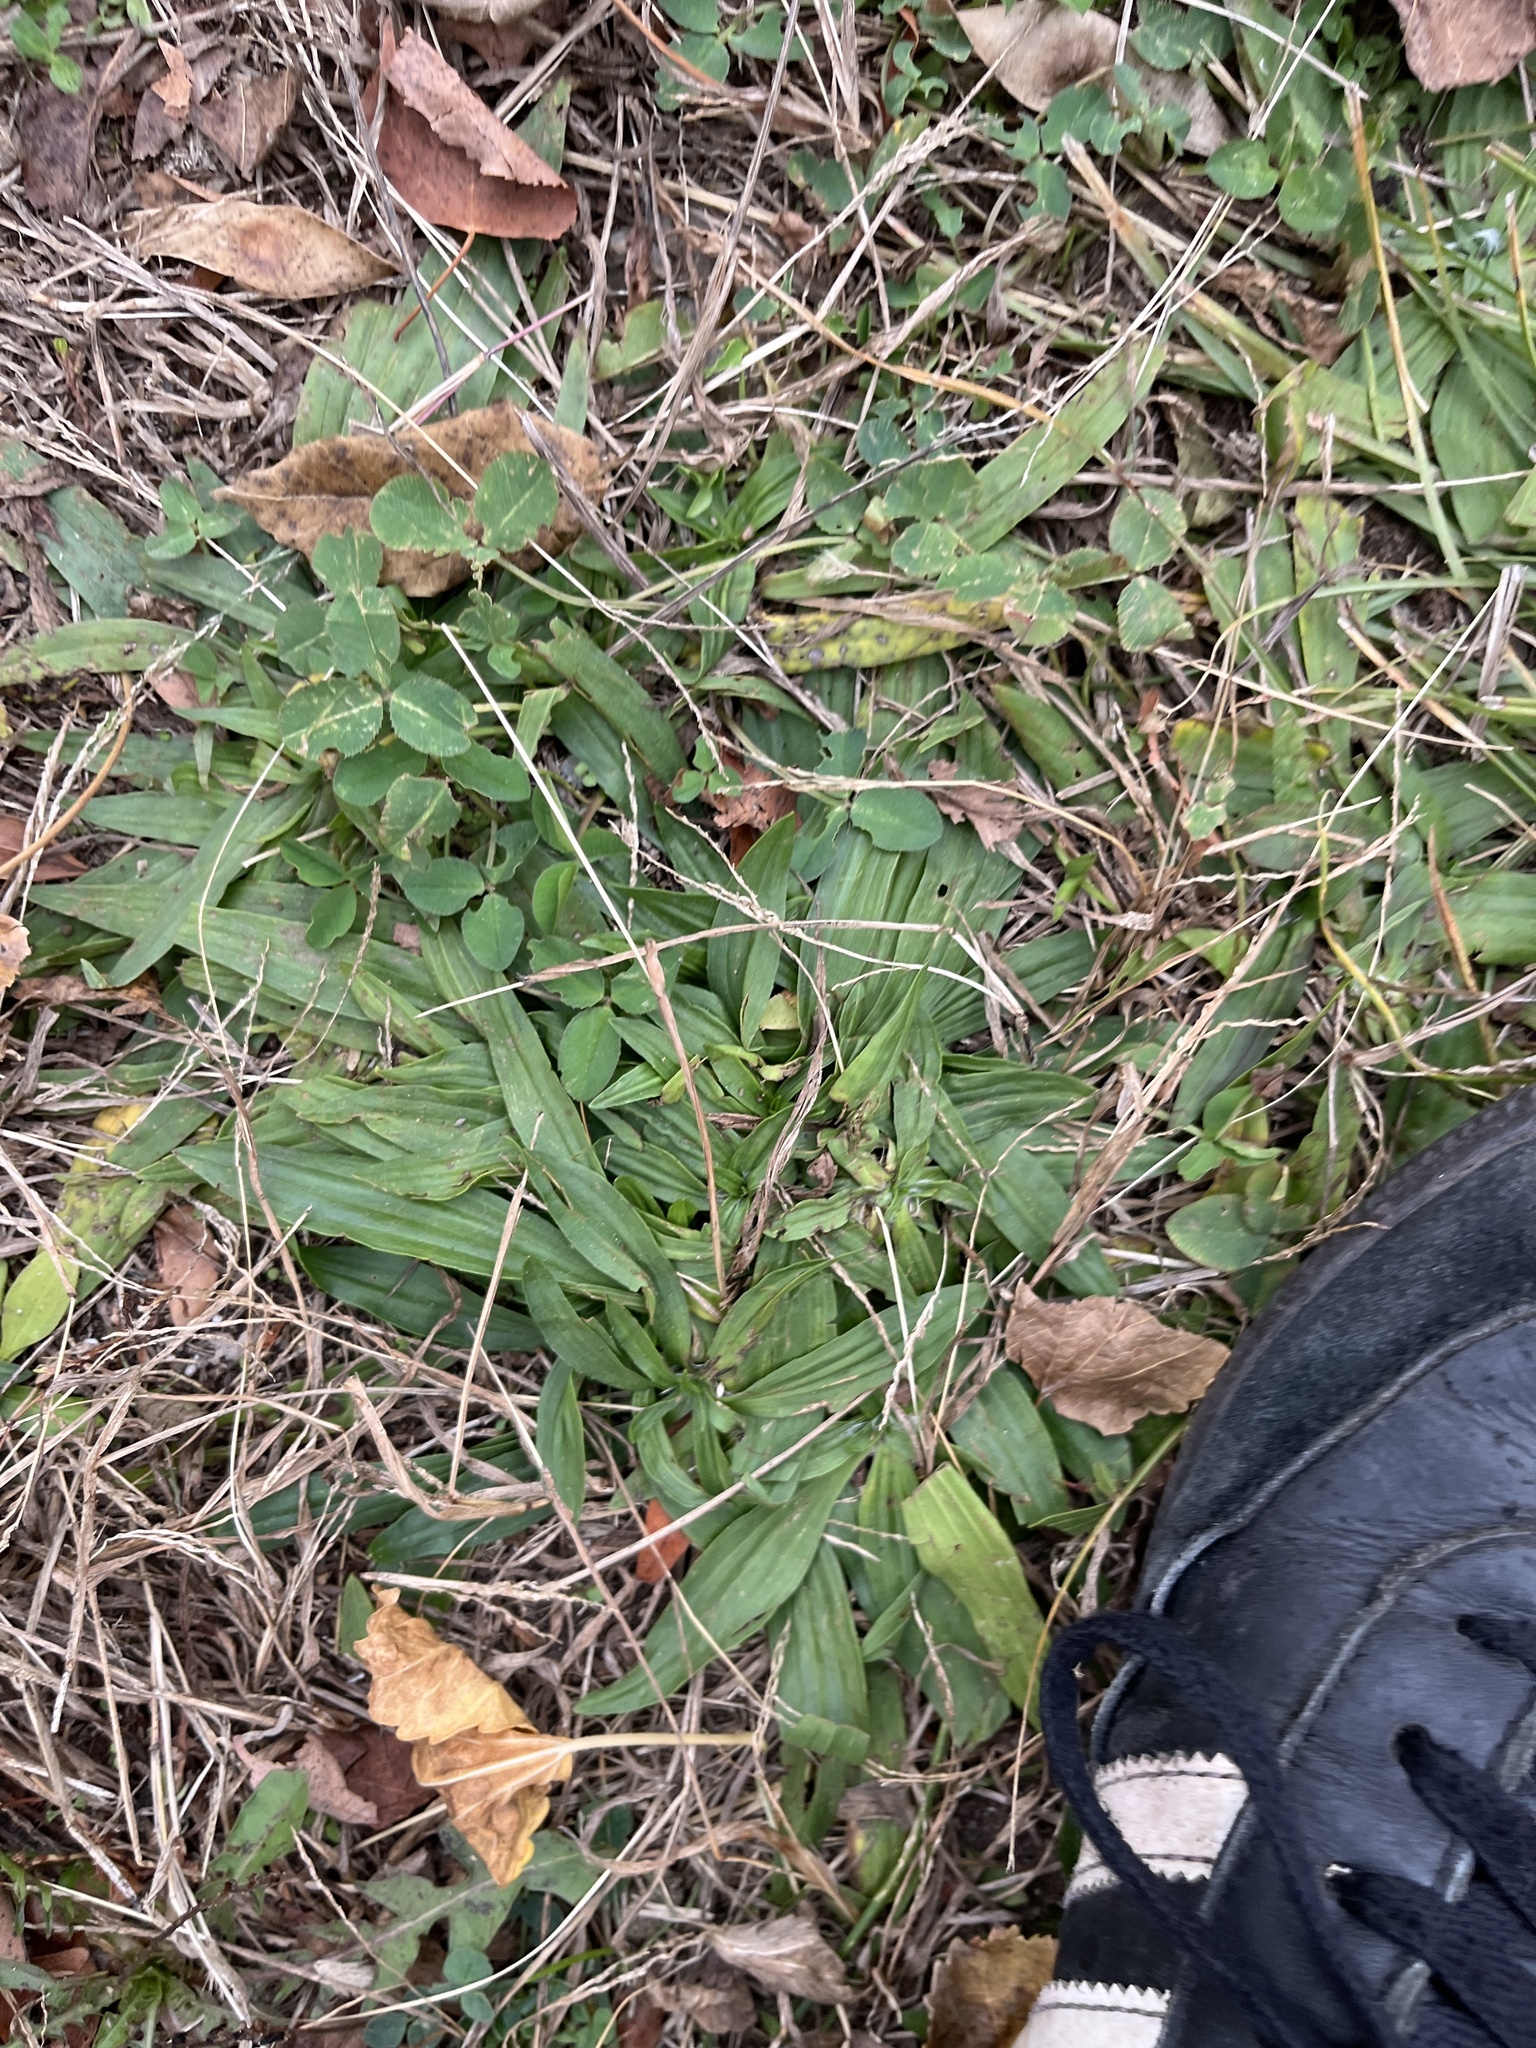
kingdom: Plantae
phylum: Tracheophyta
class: Magnoliopsida
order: Lamiales
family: Plantaginaceae
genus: Plantago
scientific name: Plantago lanceolata
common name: Ribwort plantain
